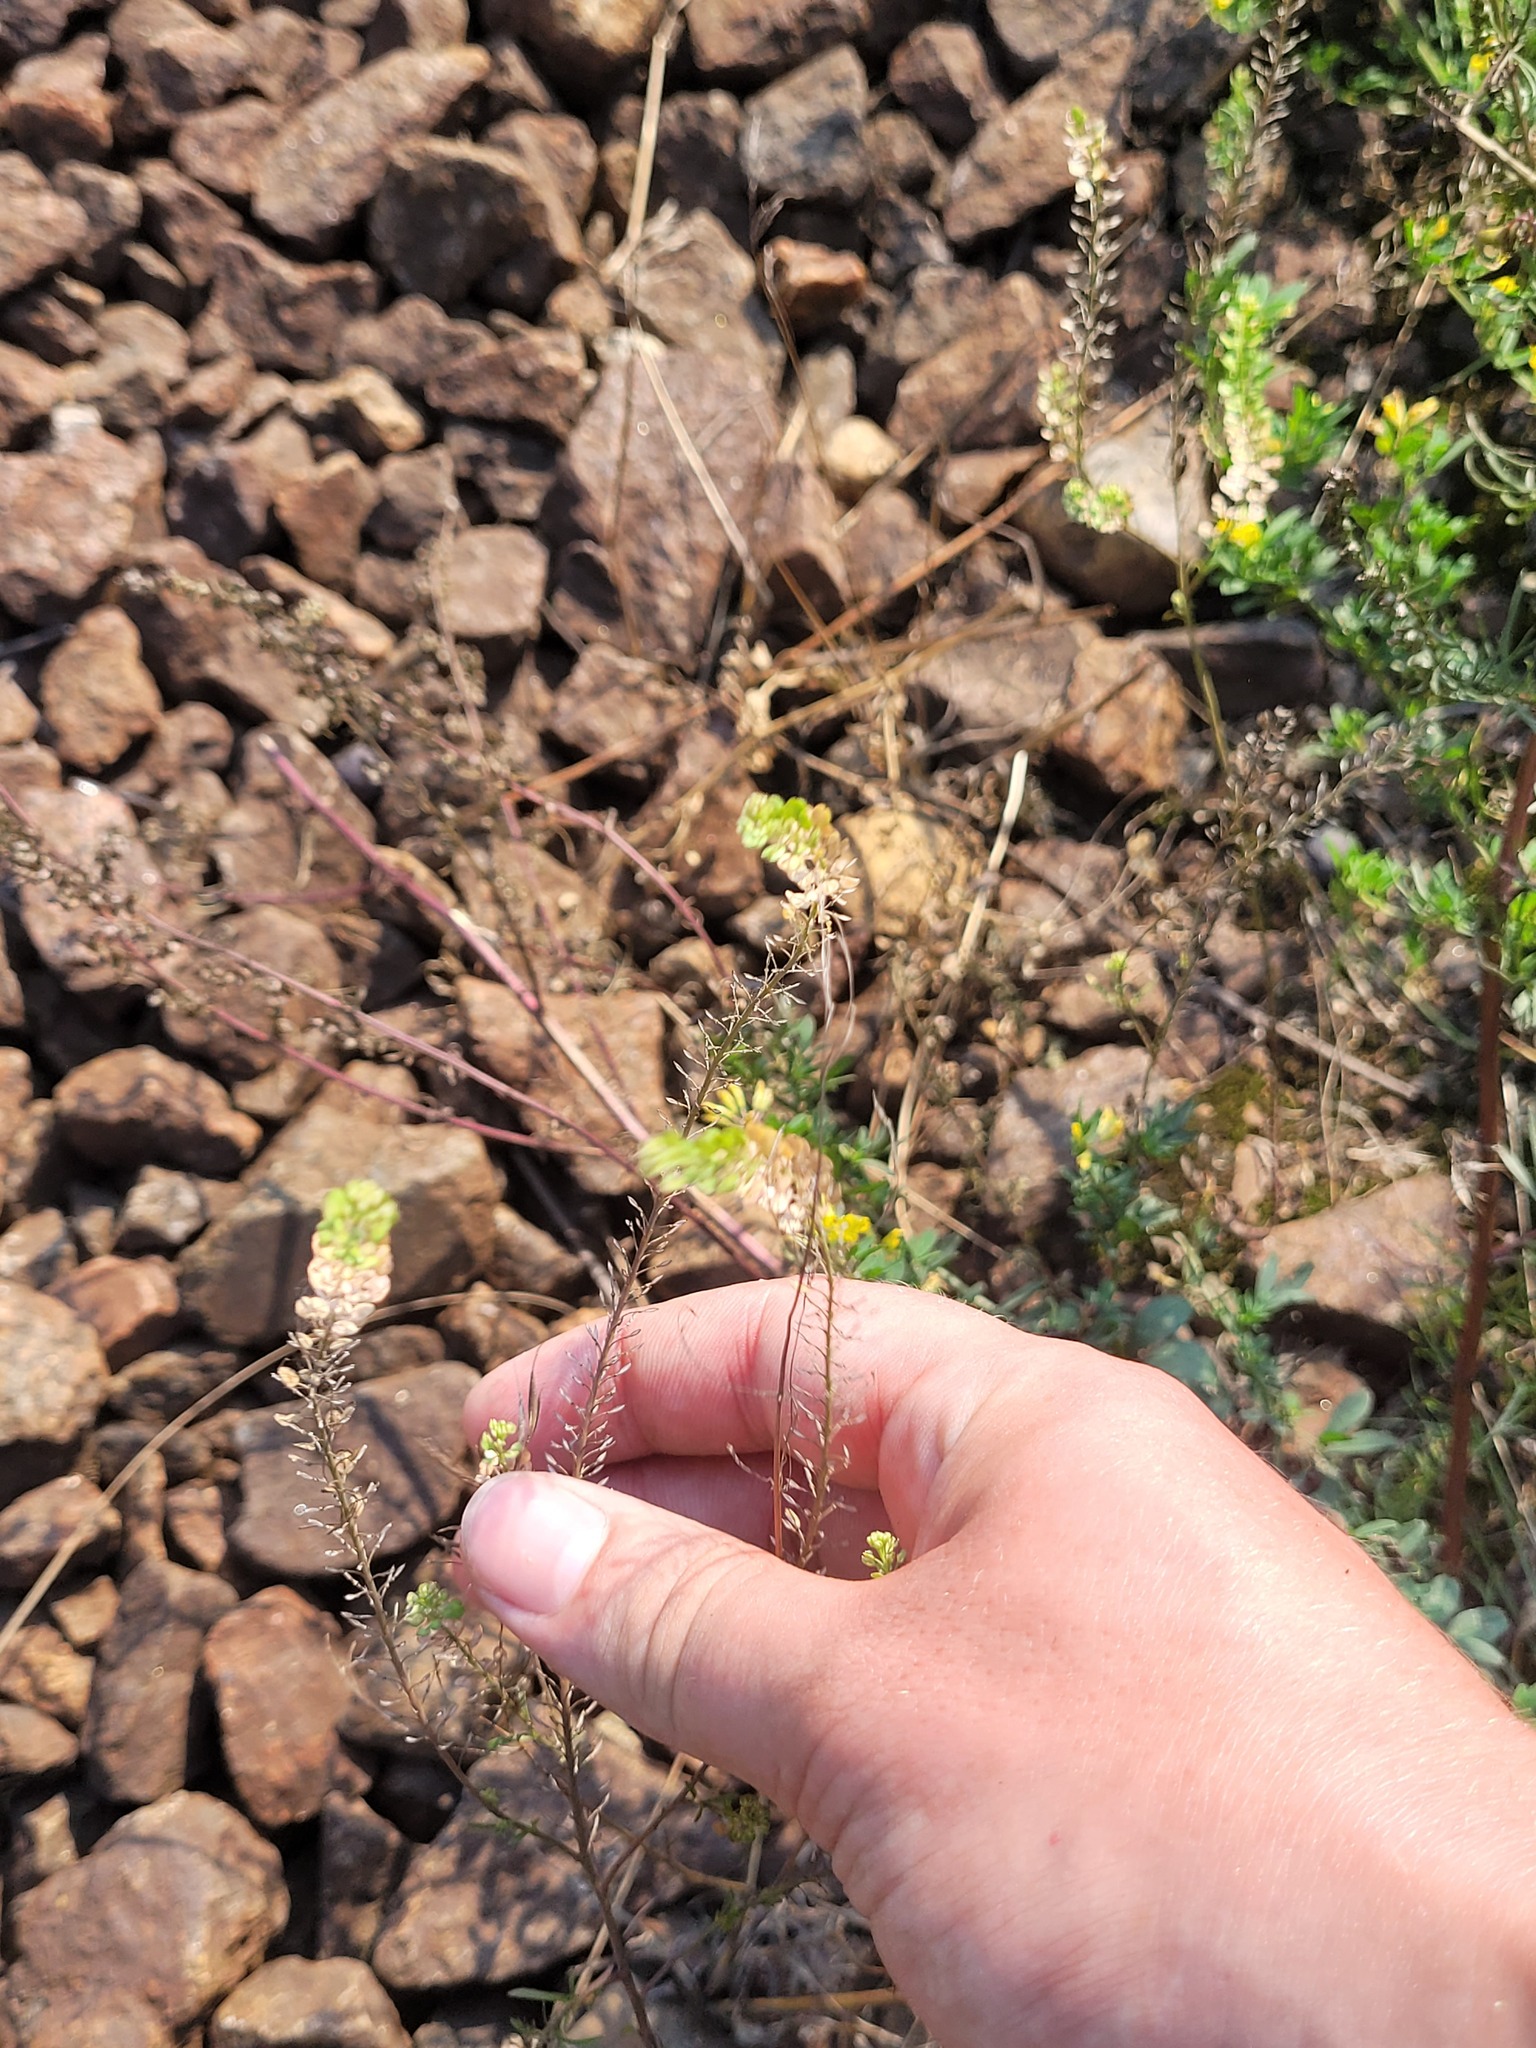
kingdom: Plantae
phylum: Tracheophyta
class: Magnoliopsida
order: Brassicales
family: Brassicaceae
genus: Lepidium
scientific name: Lepidium densiflorum
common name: Miner's pepperwort
